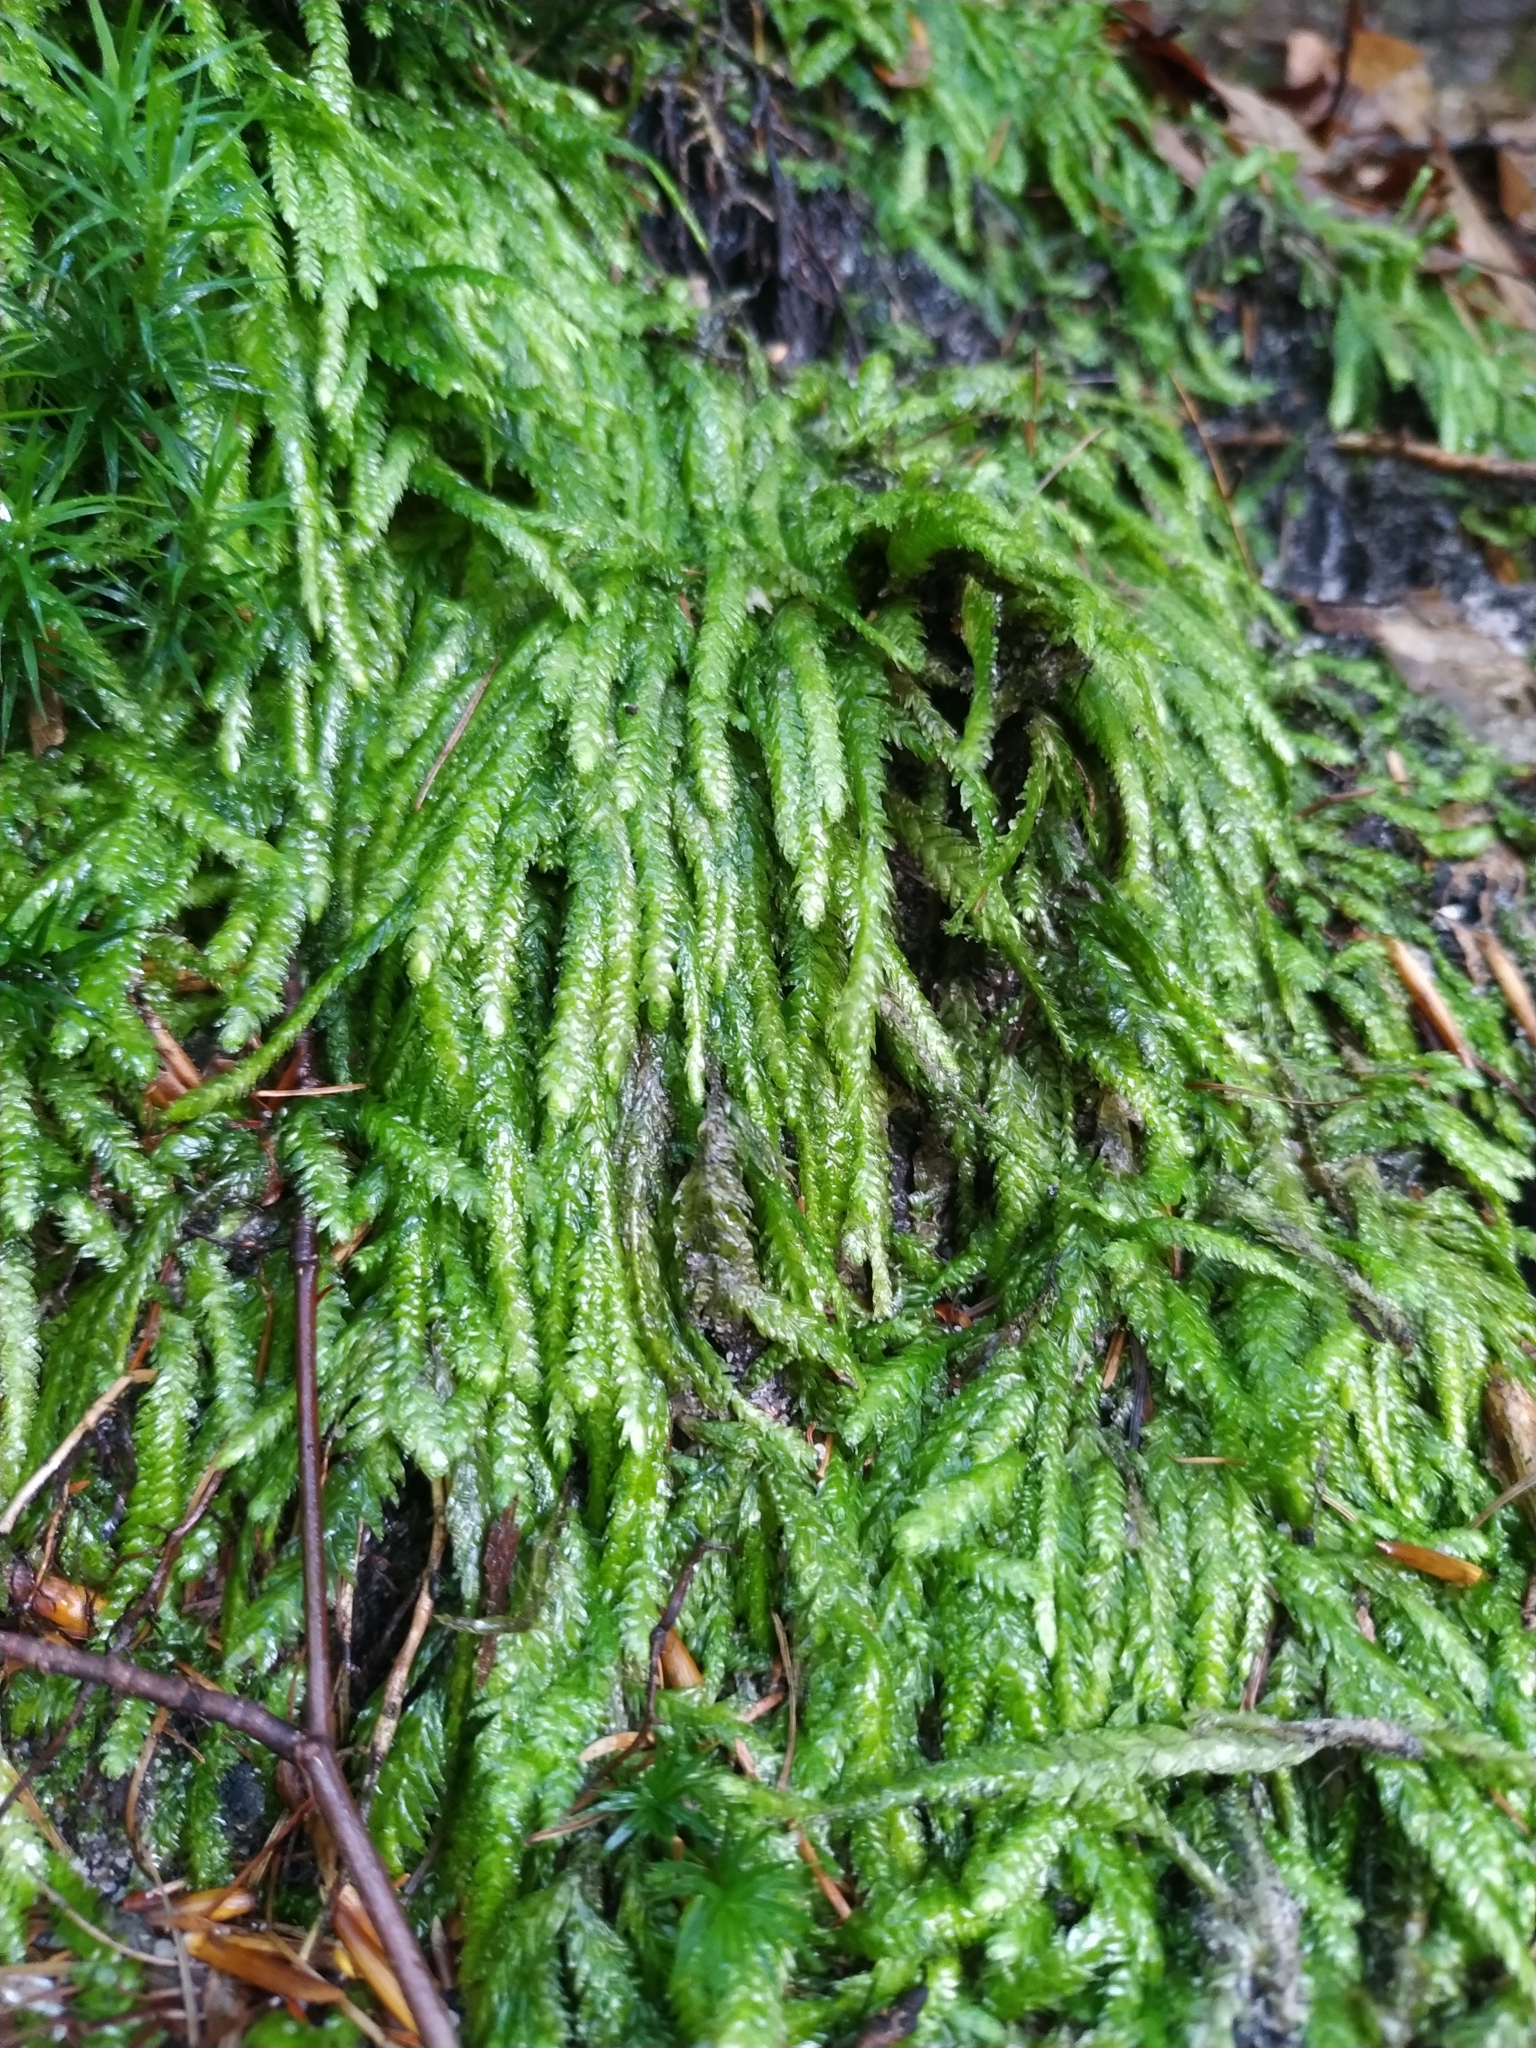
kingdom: Plantae
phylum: Bryophyta
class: Bryopsida
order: Hypnales
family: Plagiotheciaceae
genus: Plagiothecium
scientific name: Plagiothecium undulatum
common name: Waved silk-moss
